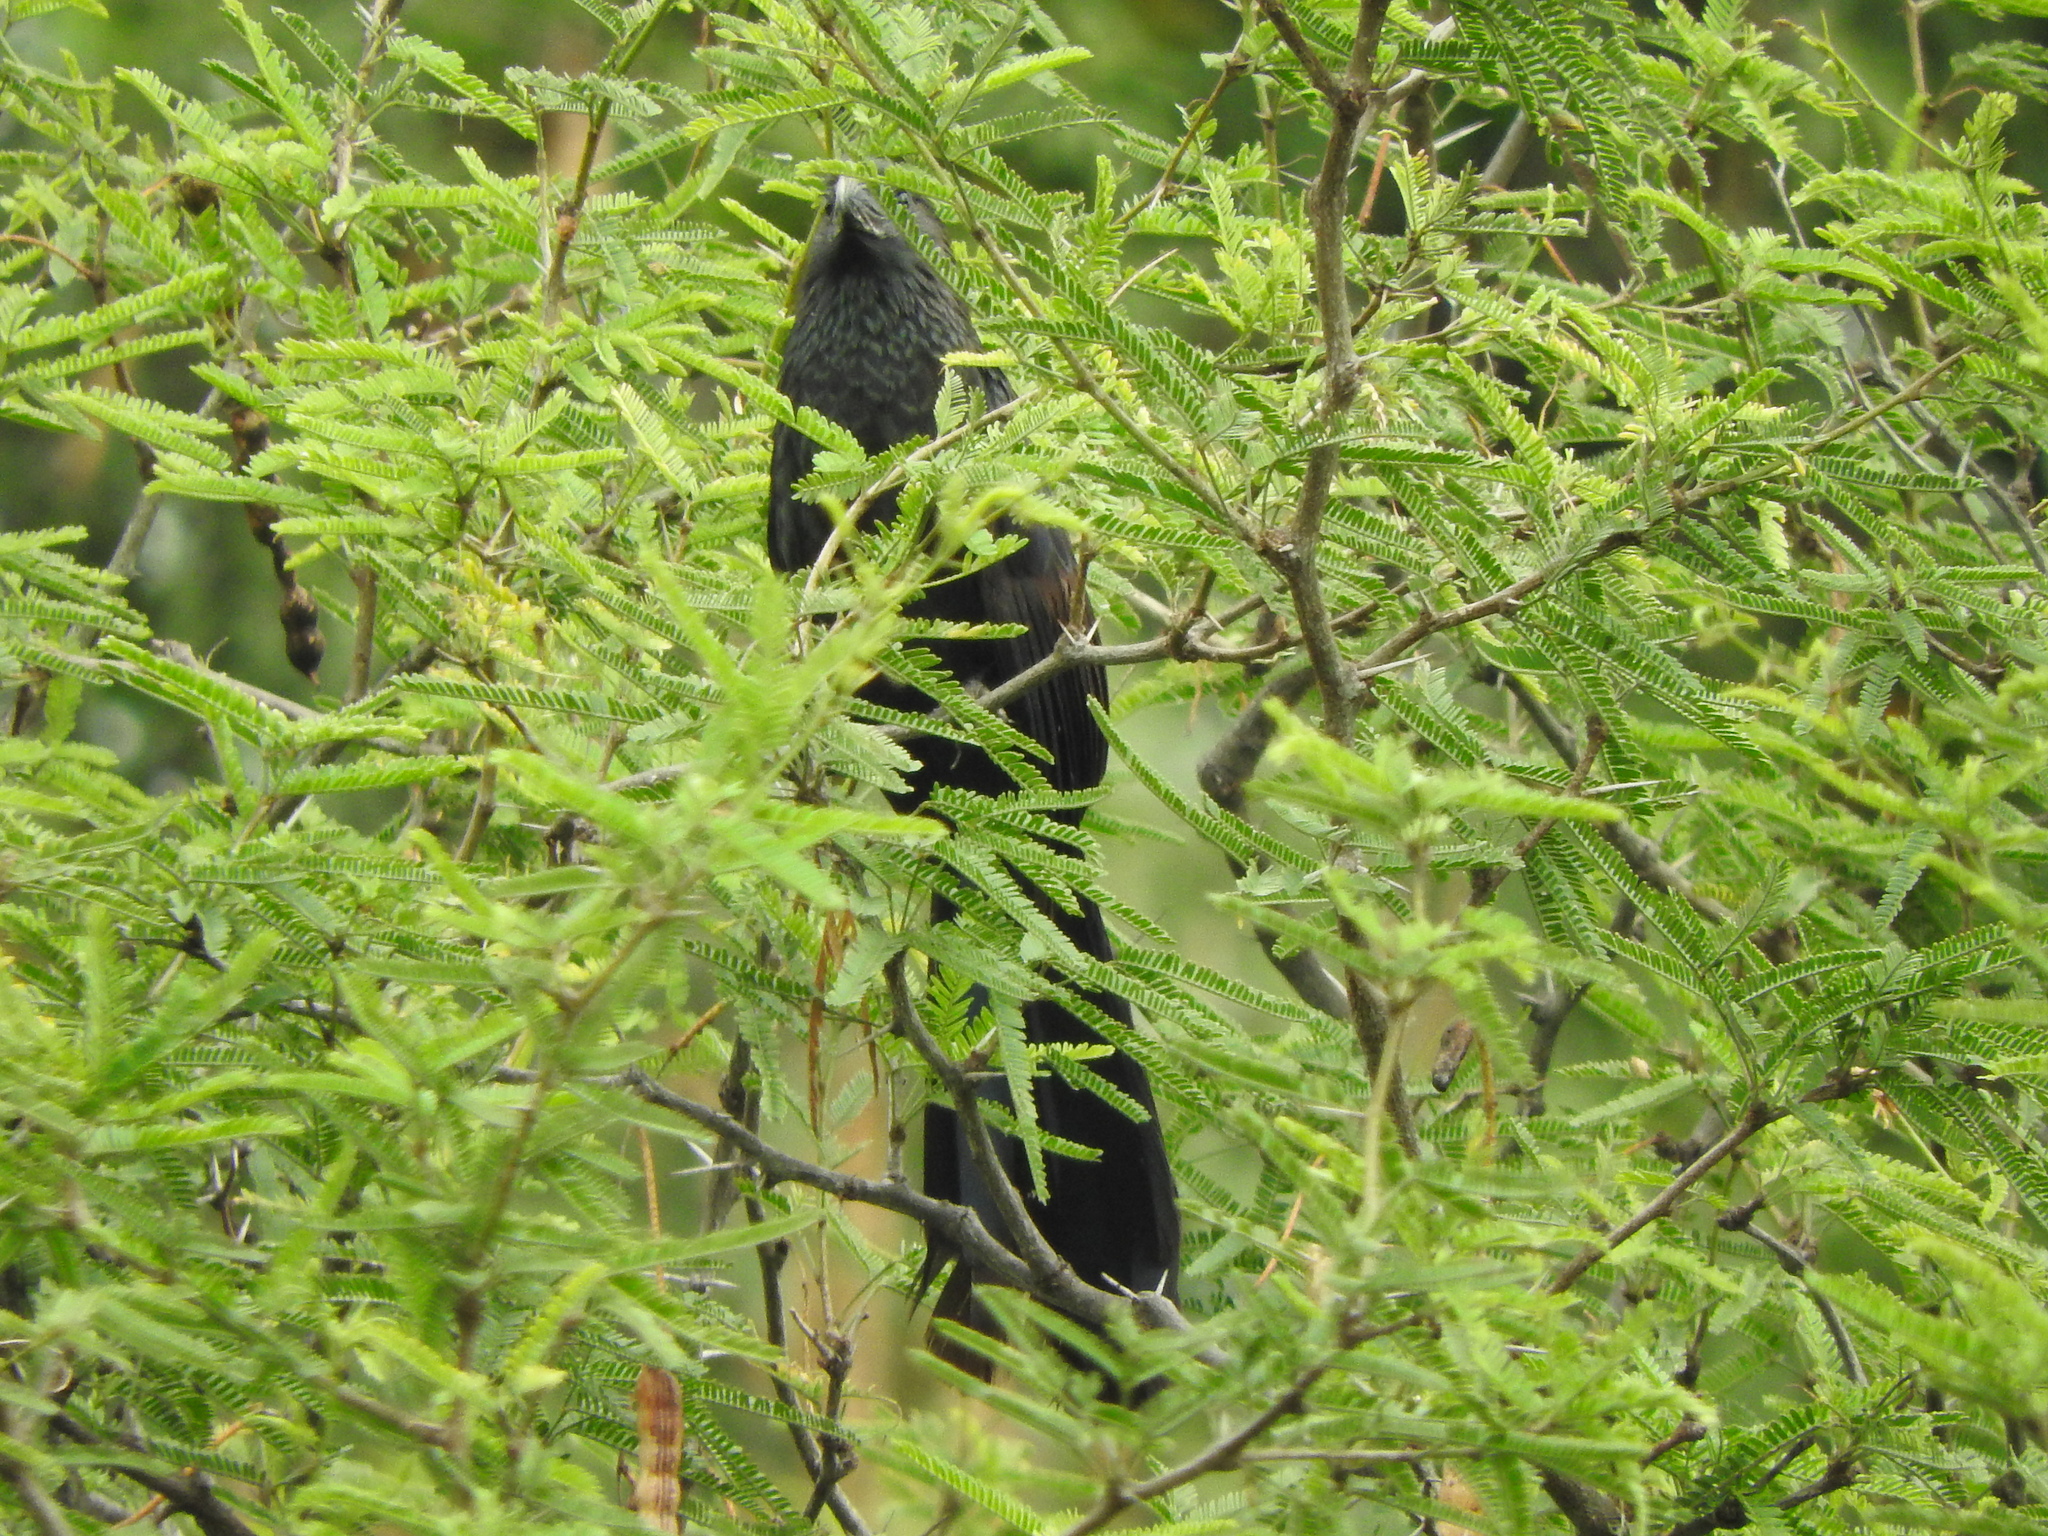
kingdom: Animalia
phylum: Chordata
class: Aves
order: Cuculiformes
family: Cuculidae
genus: Crotophaga
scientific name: Crotophaga sulcirostris
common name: Groove-billed ani
